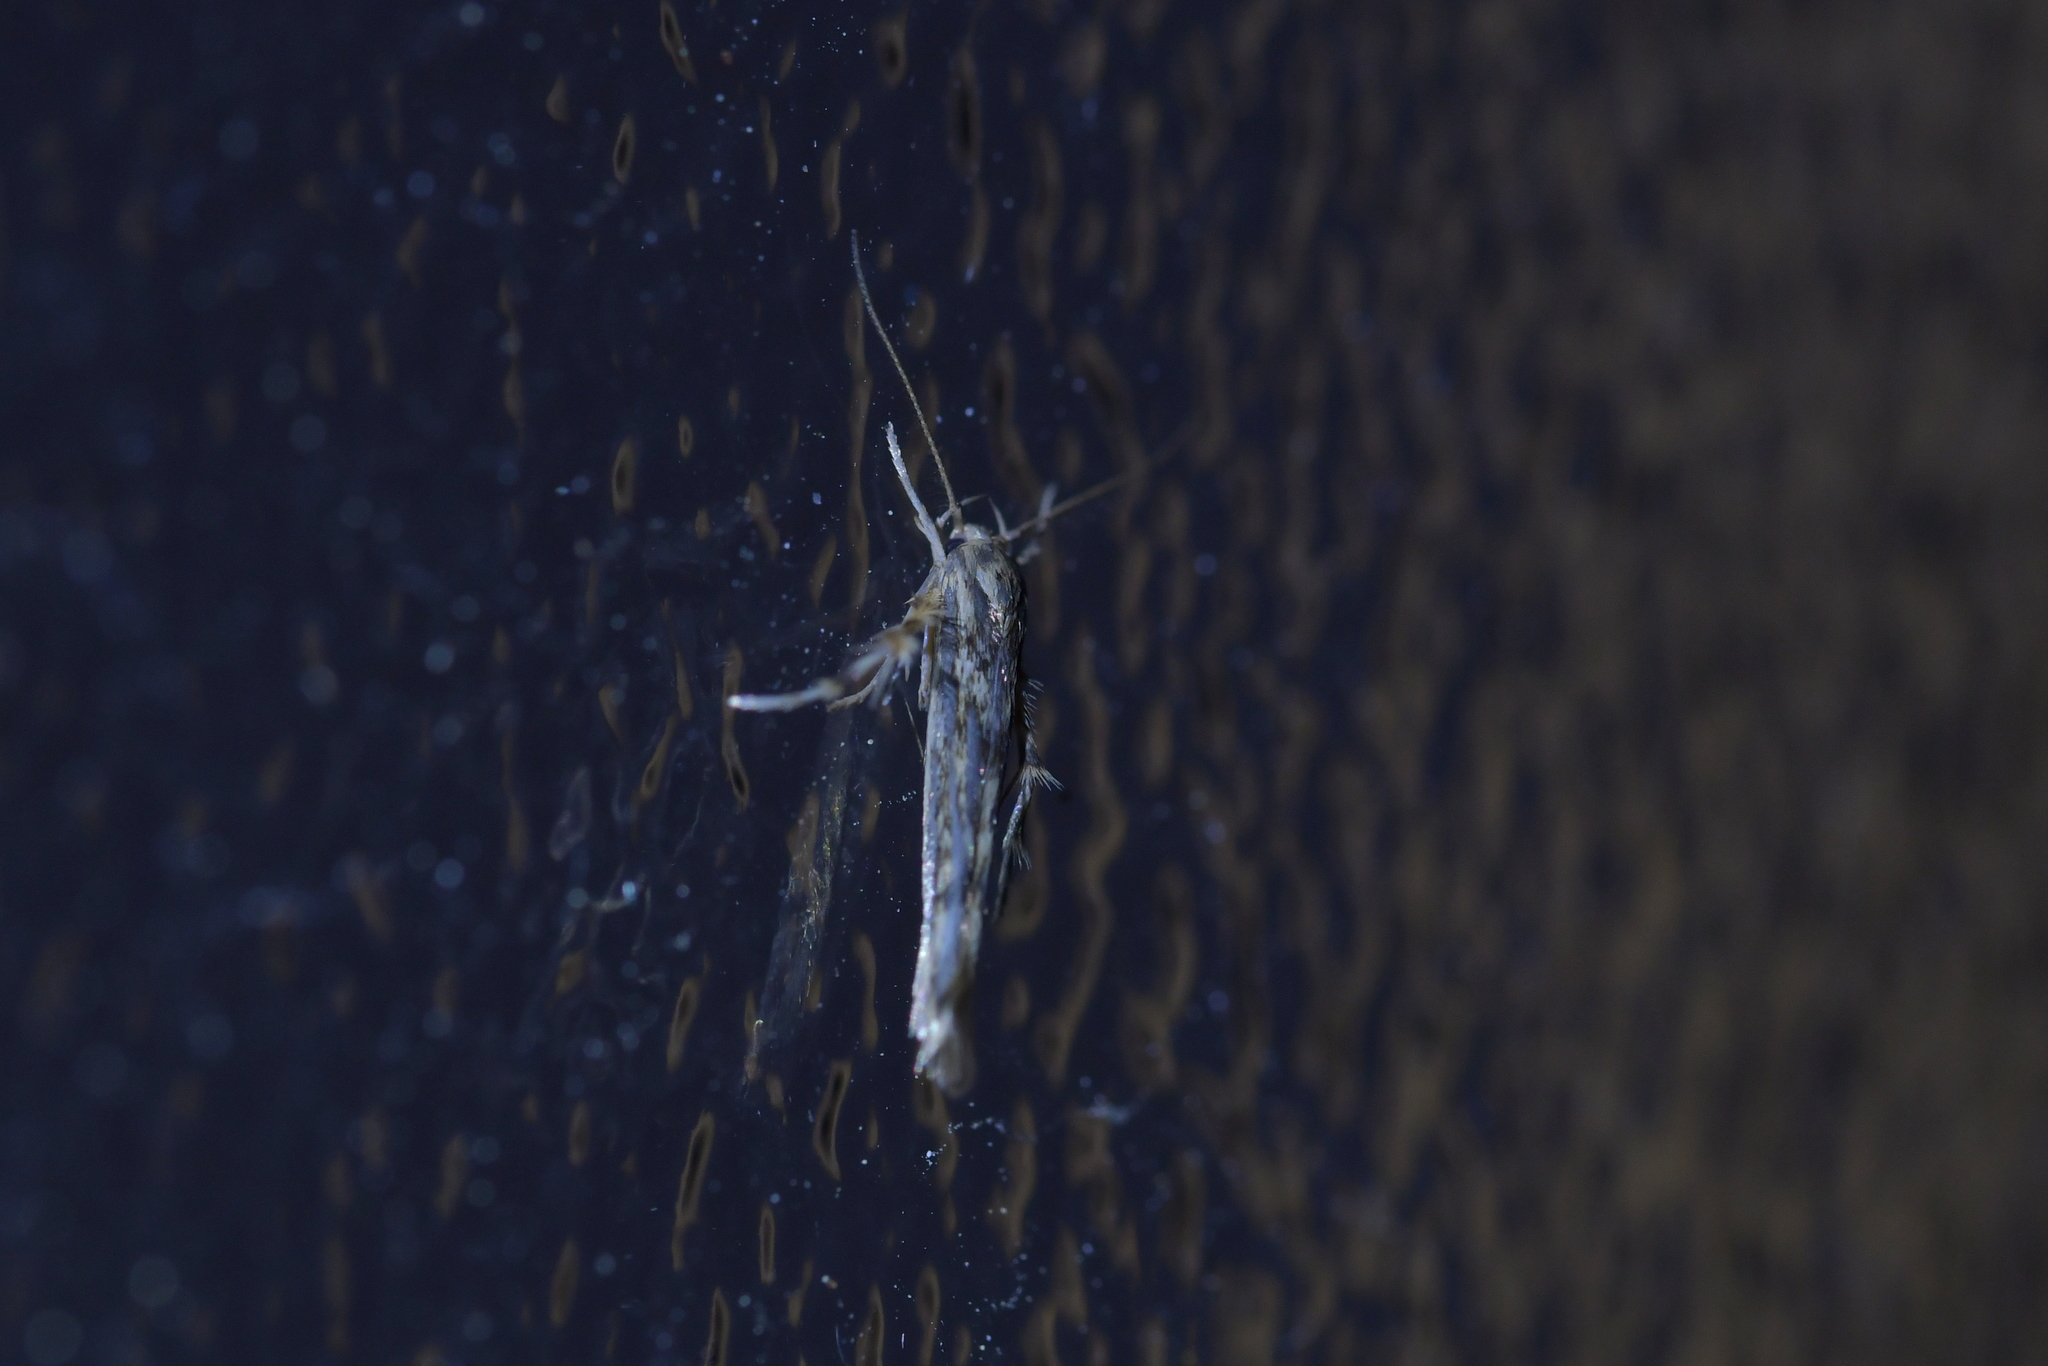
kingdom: Animalia
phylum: Arthropoda
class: Insecta
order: Lepidoptera
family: Stathmopodidae
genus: Stathmopoda
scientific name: Stathmopoda plumbiflua
